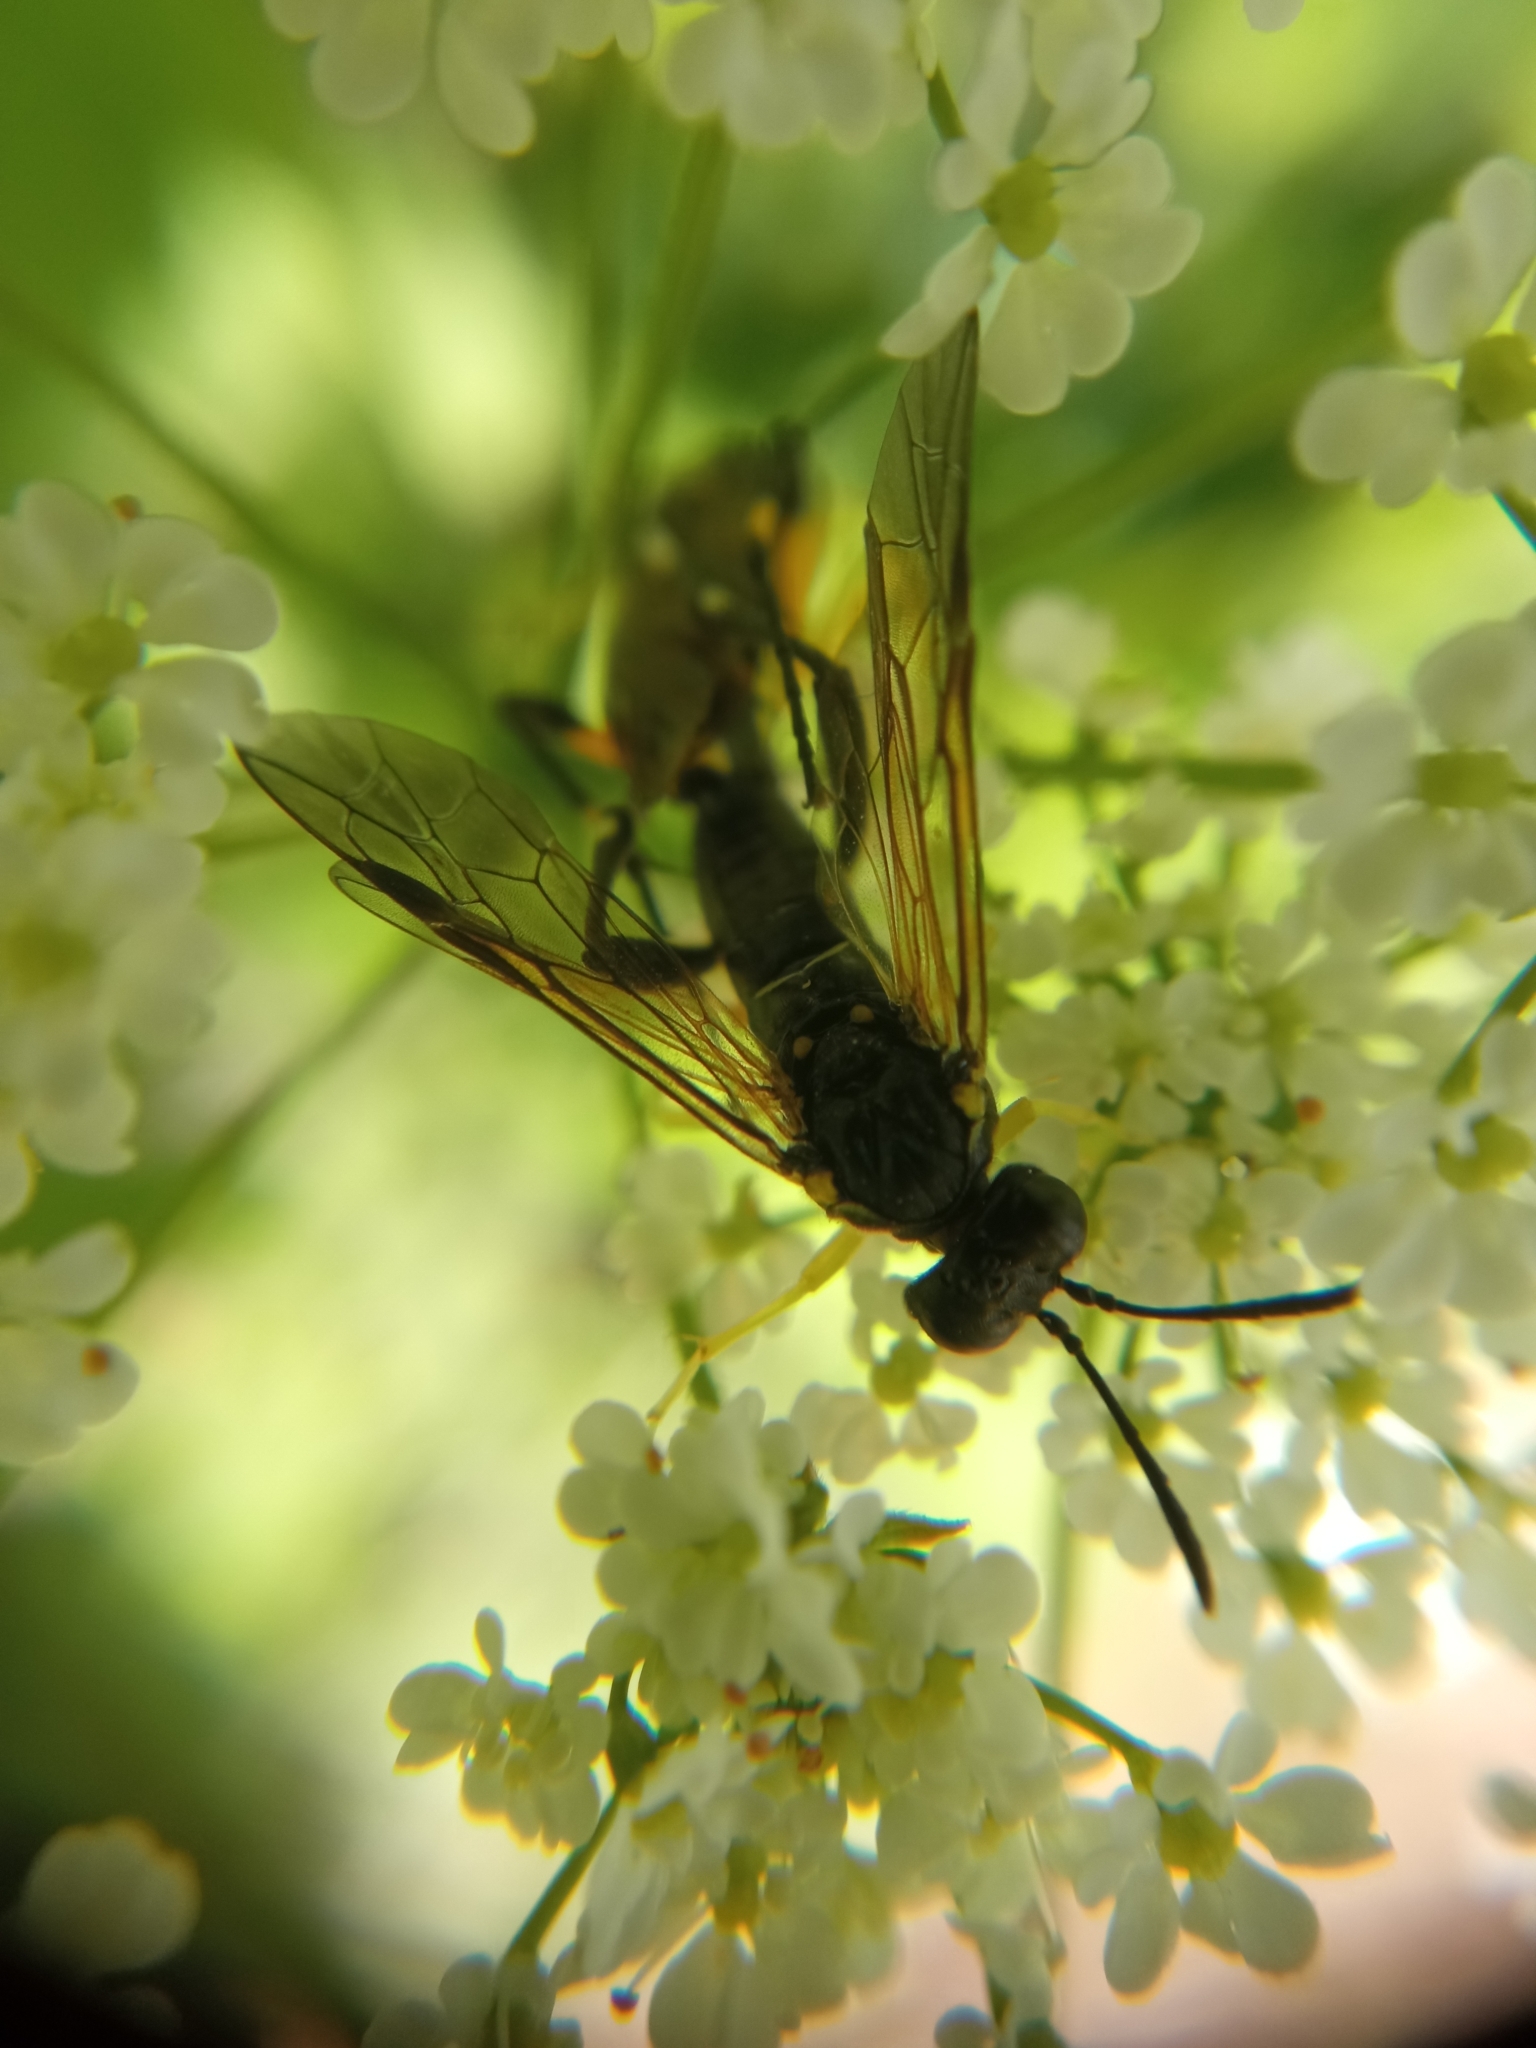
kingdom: Animalia
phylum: Arthropoda
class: Insecta
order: Hymenoptera
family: Tenthredinidae
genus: Macrophya
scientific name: Macrophya montana
